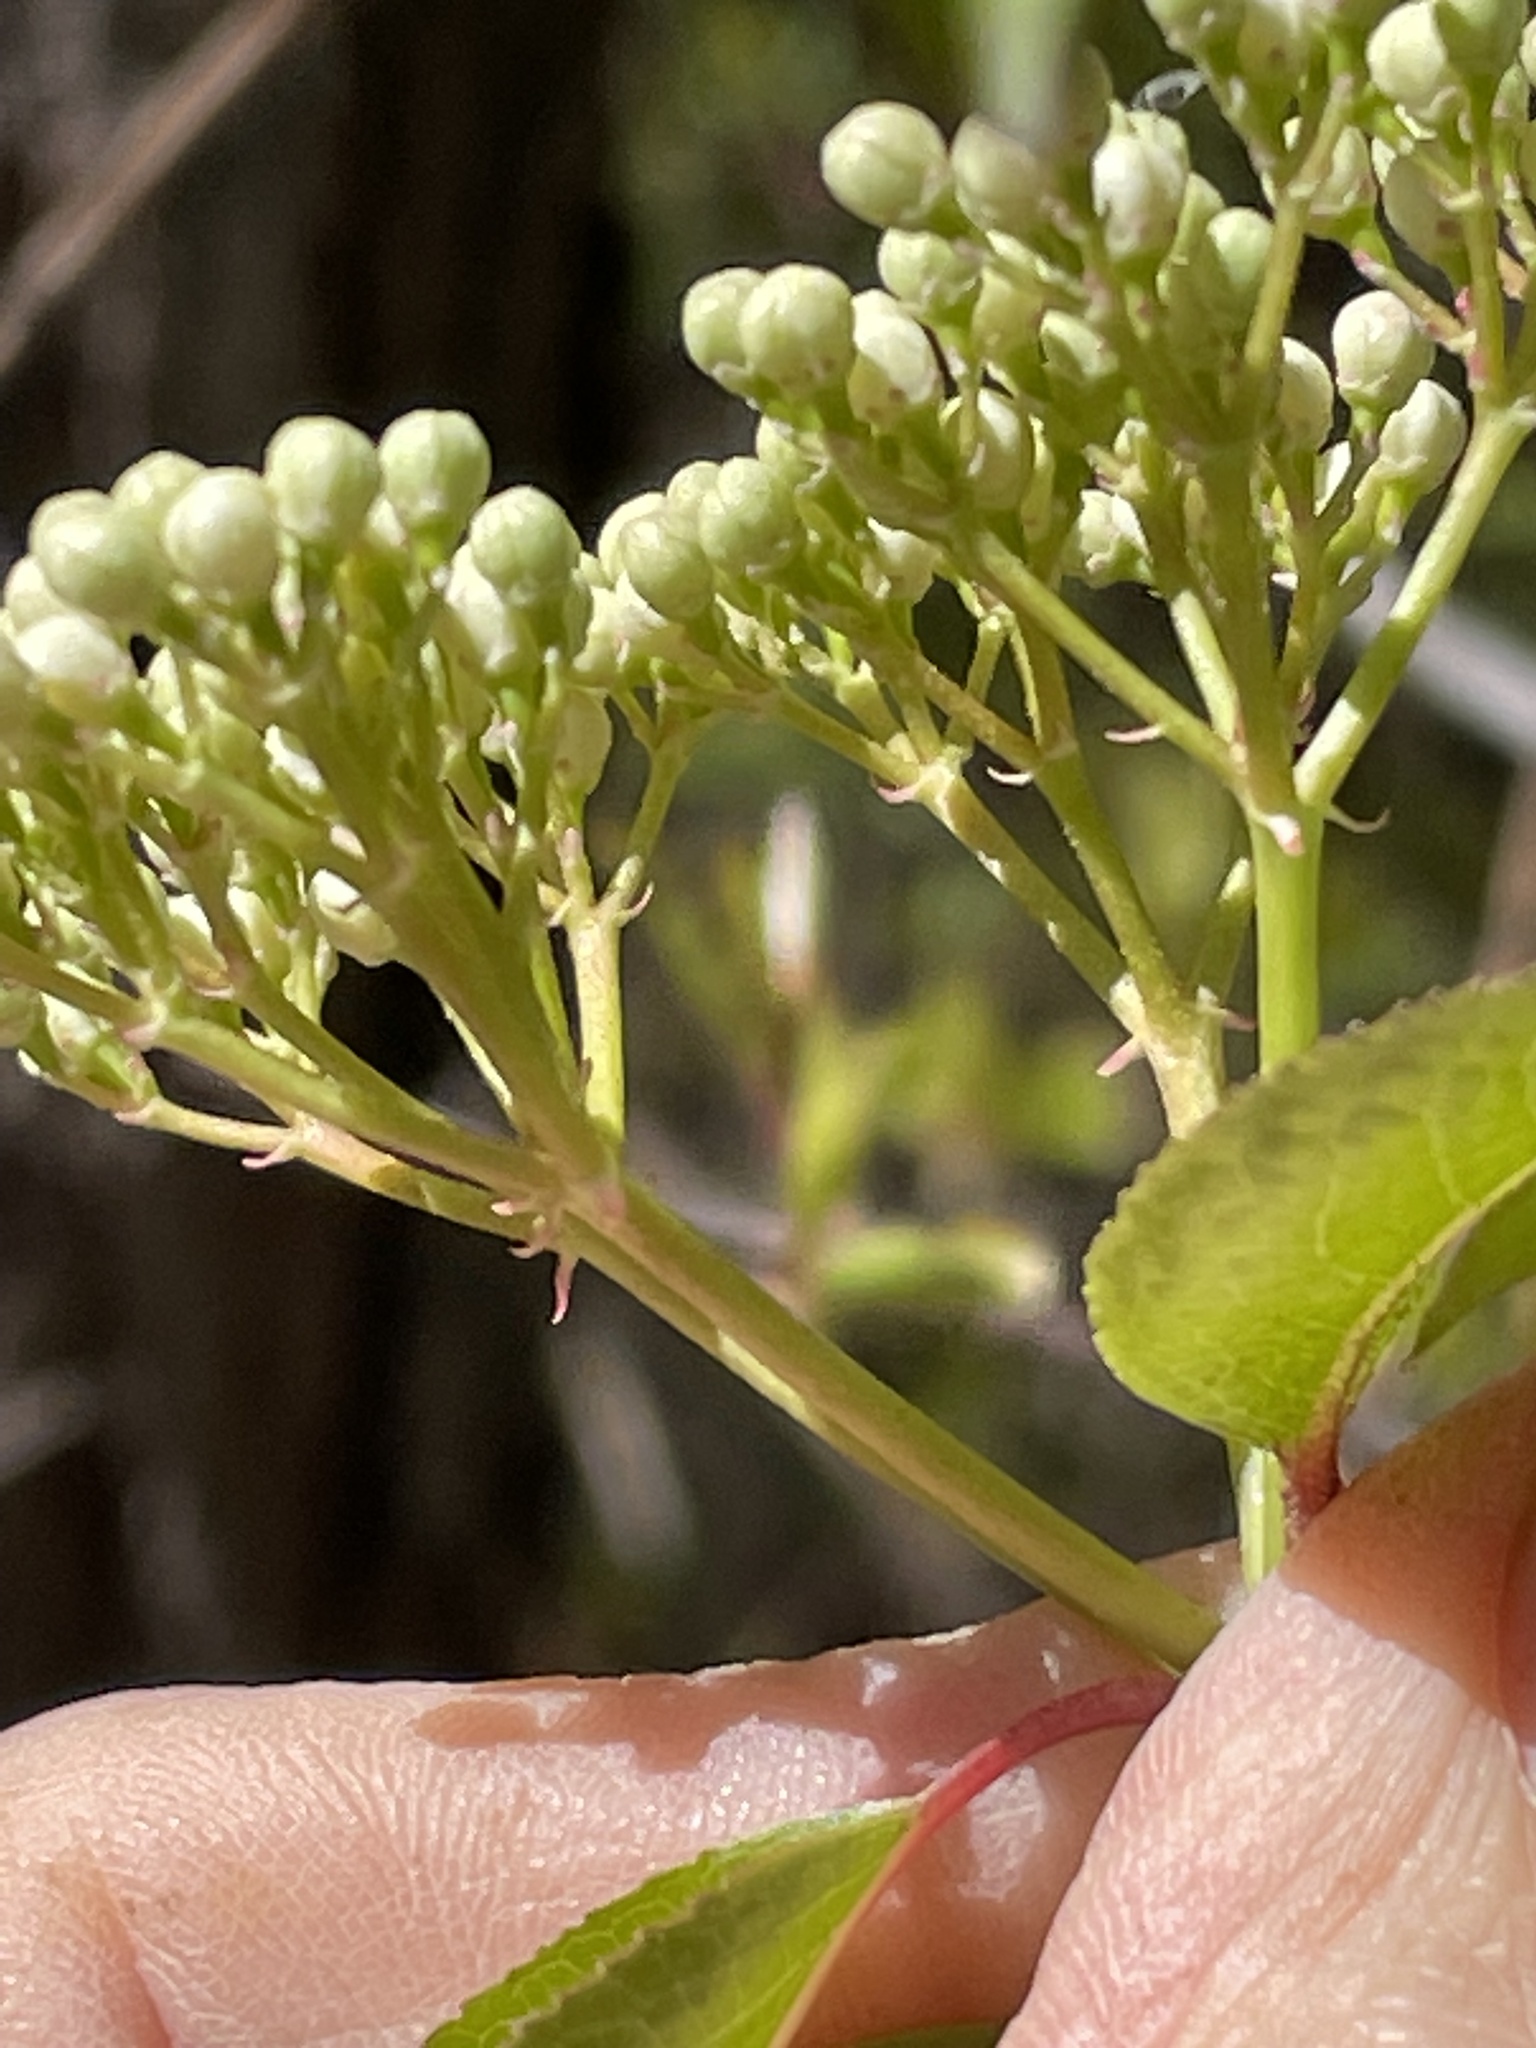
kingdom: Plantae
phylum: Tracheophyta
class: Magnoliopsida
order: Dipsacales
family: Viburnaceae
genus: Viburnum
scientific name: Viburnum prunifolium
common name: Black haw
